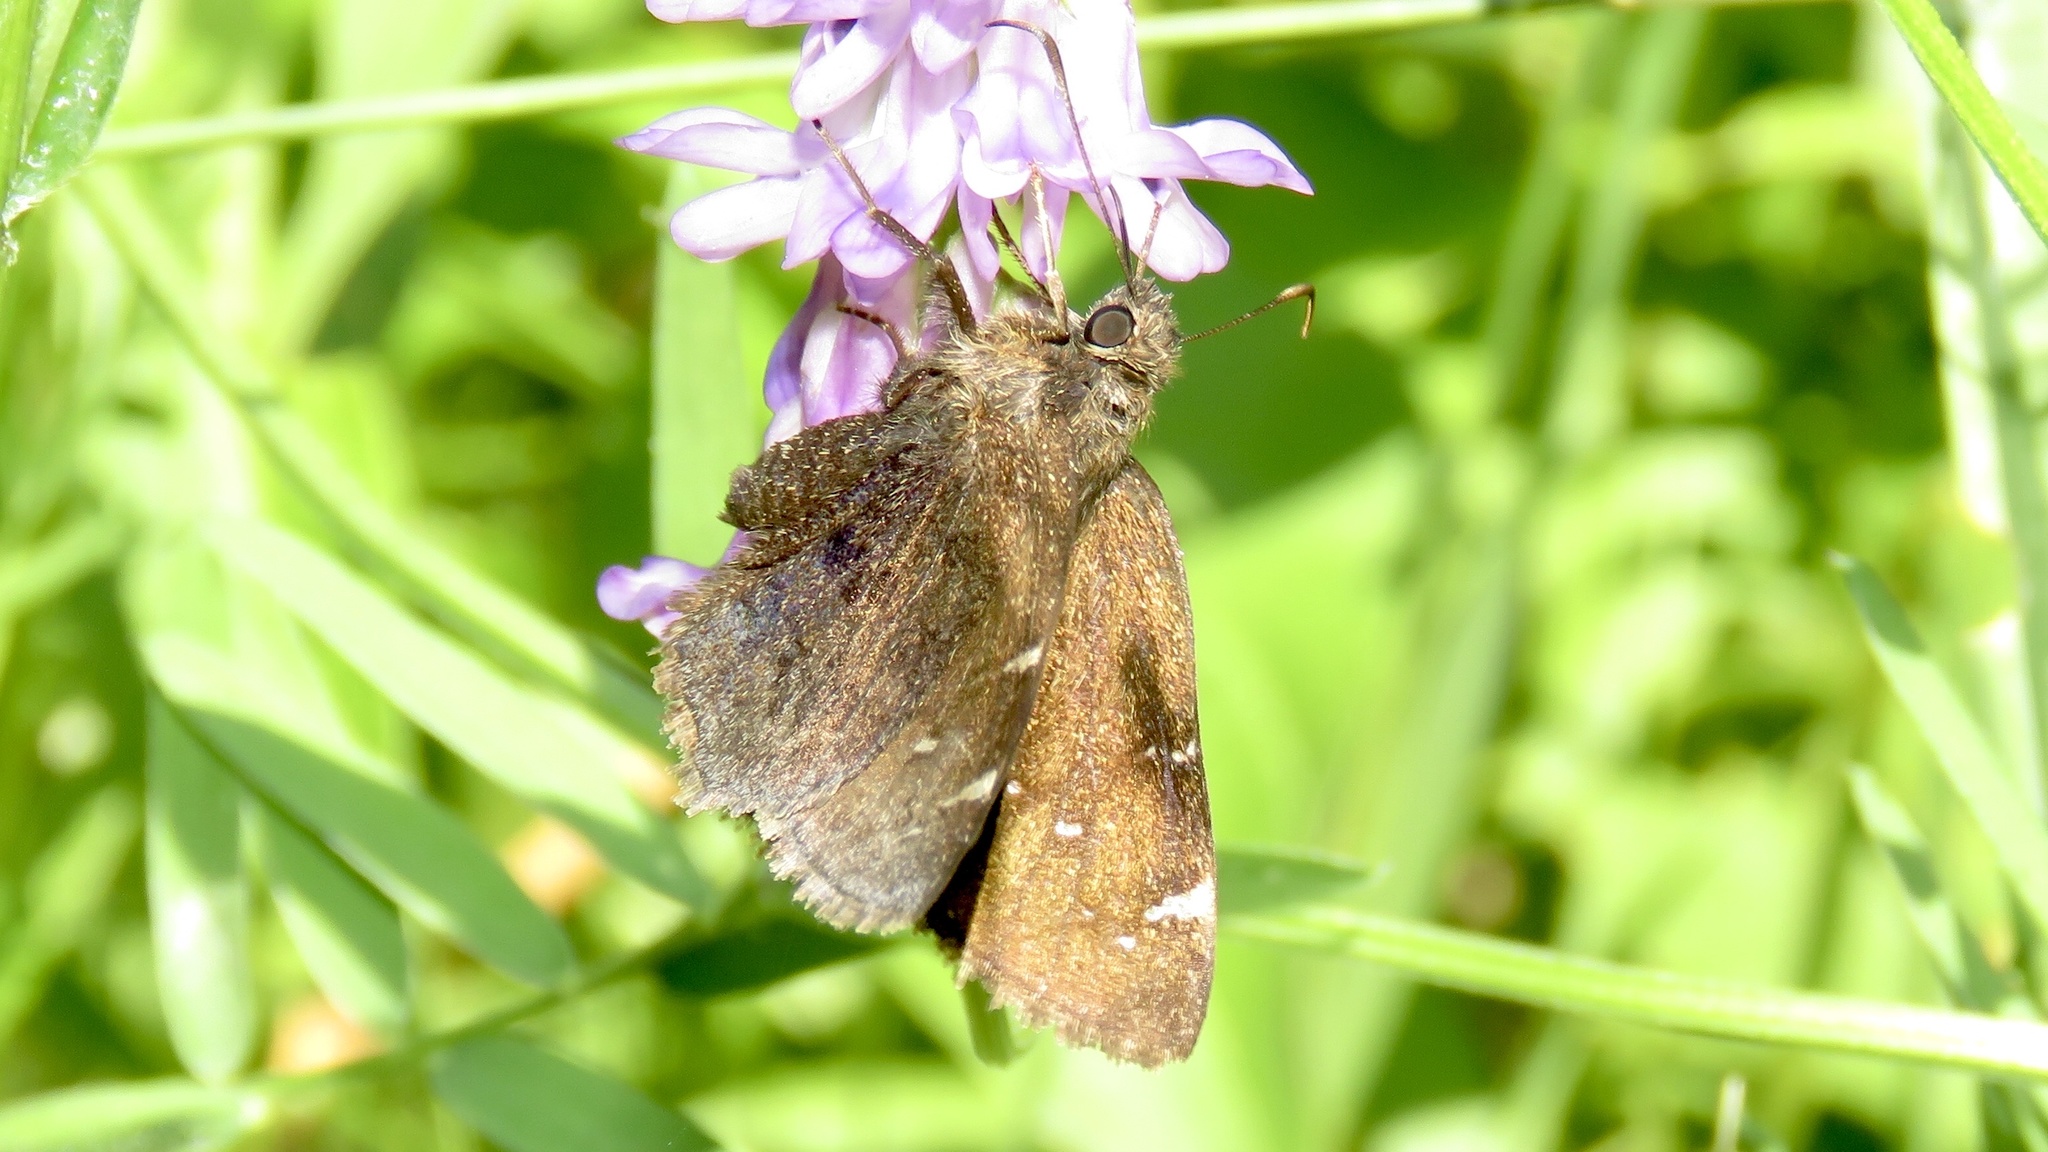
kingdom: Animalia
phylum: Arthropoda
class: Insecta
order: Lepidoptera
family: Hesperiidae
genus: Thorybes
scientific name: Thorybes pylades
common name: Northern cloudywing
